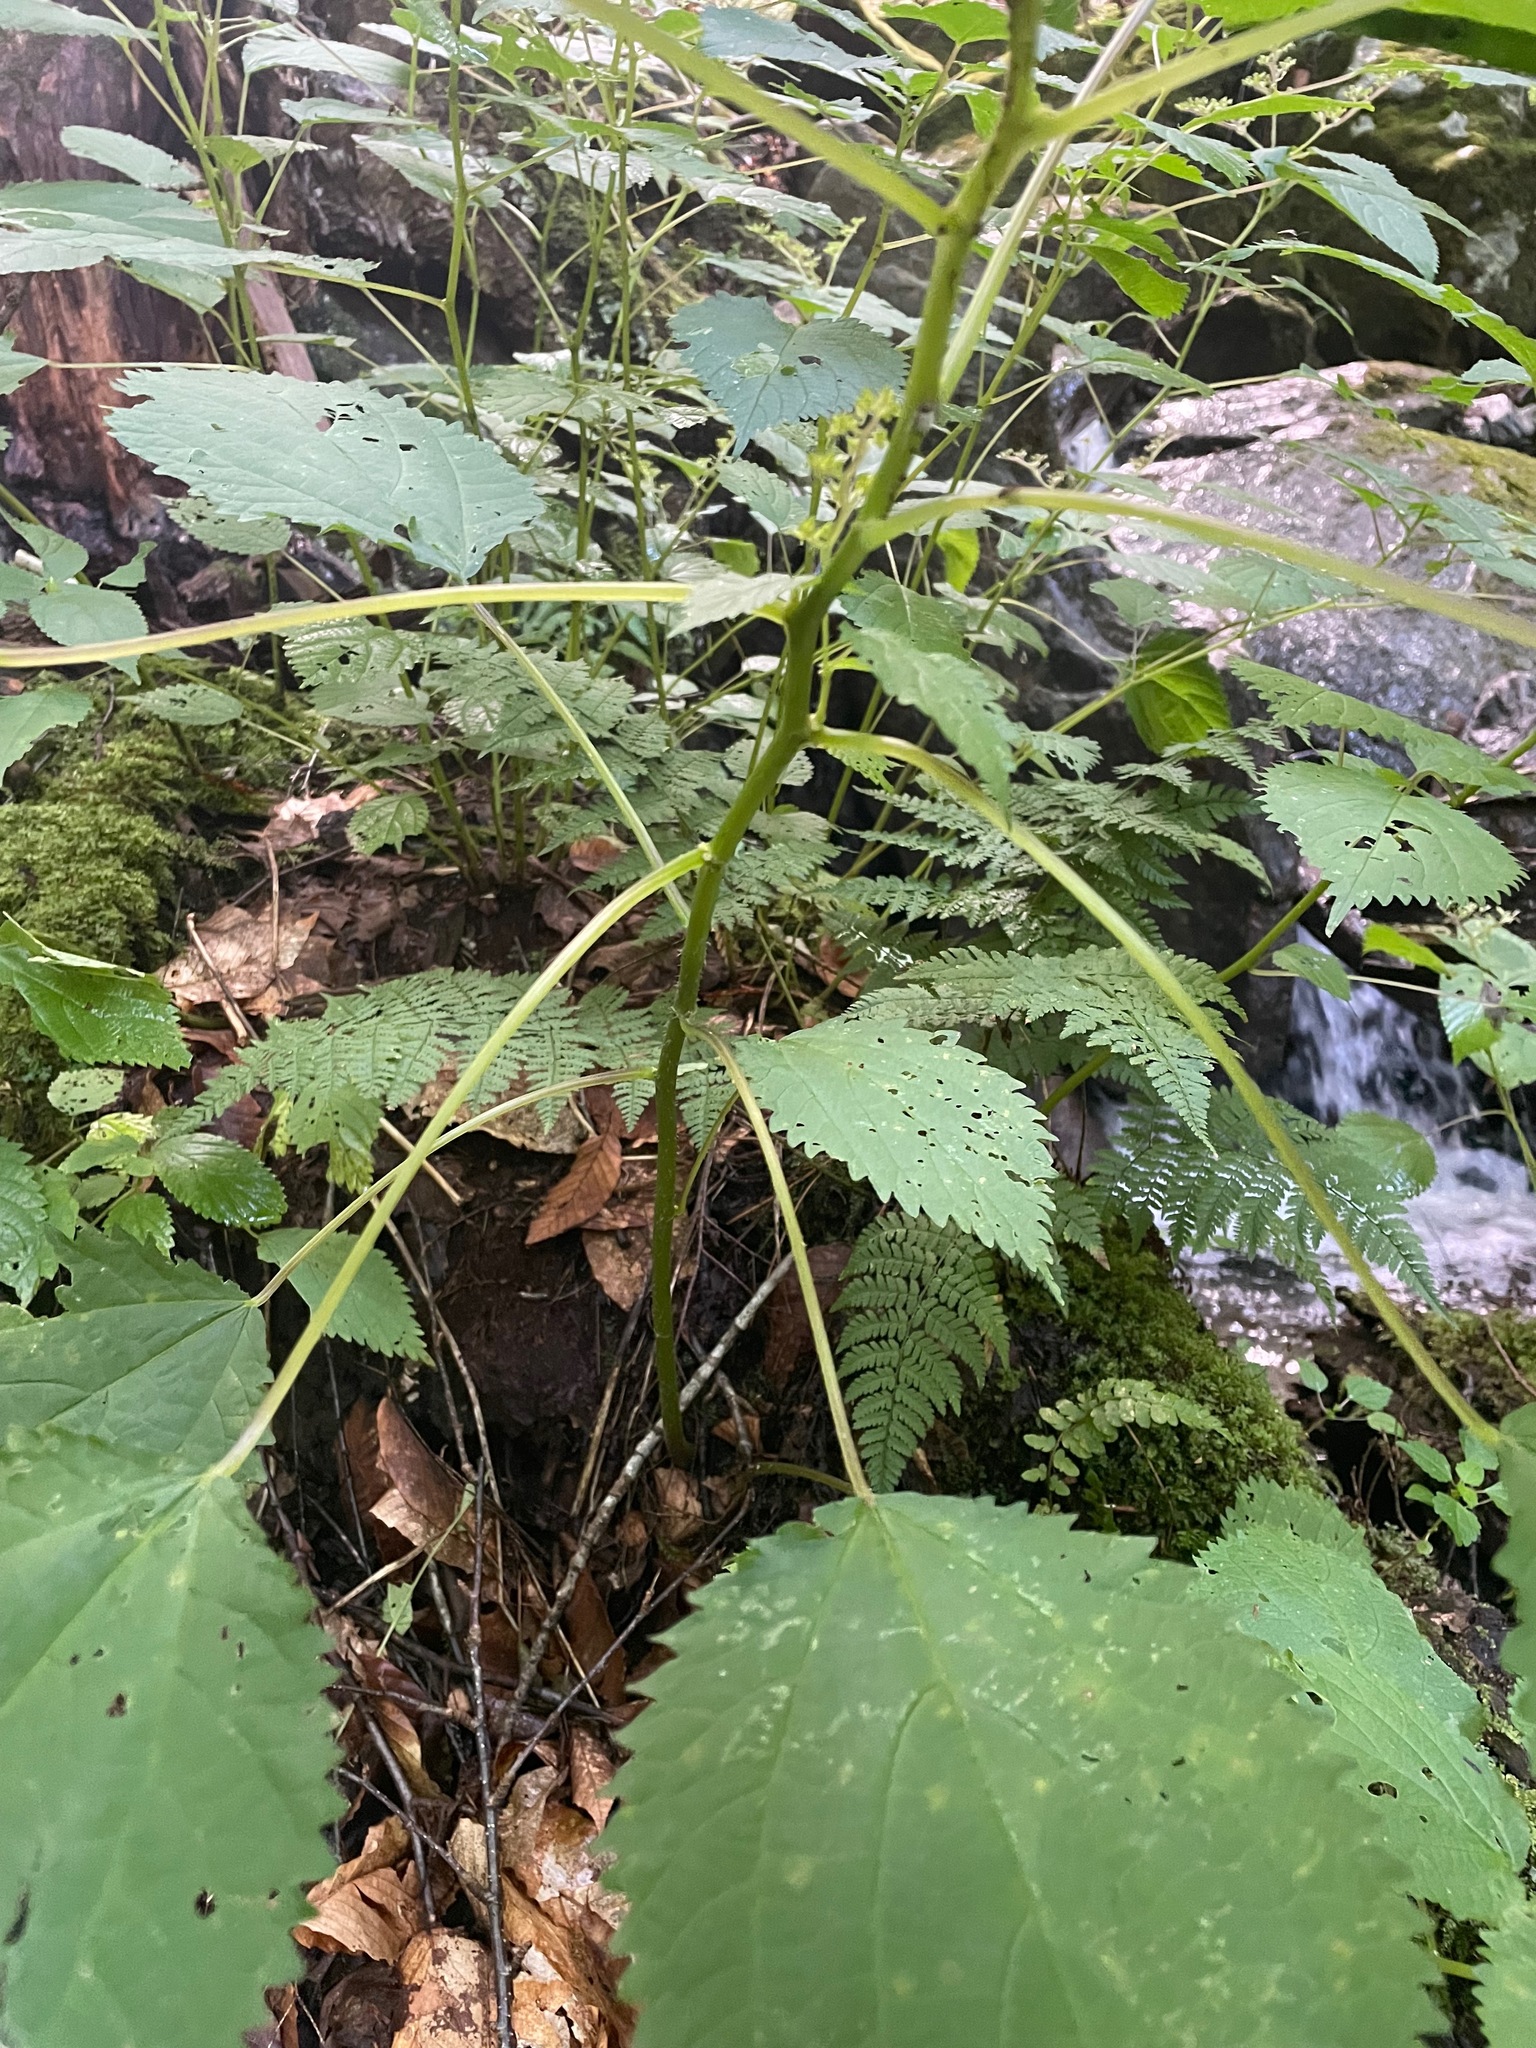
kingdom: Plantae
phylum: Tracheophyta
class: Magnoliopsida
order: Rosales
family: Urticaceae
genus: Laportea
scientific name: Laportea canadensis
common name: Canada nettle
